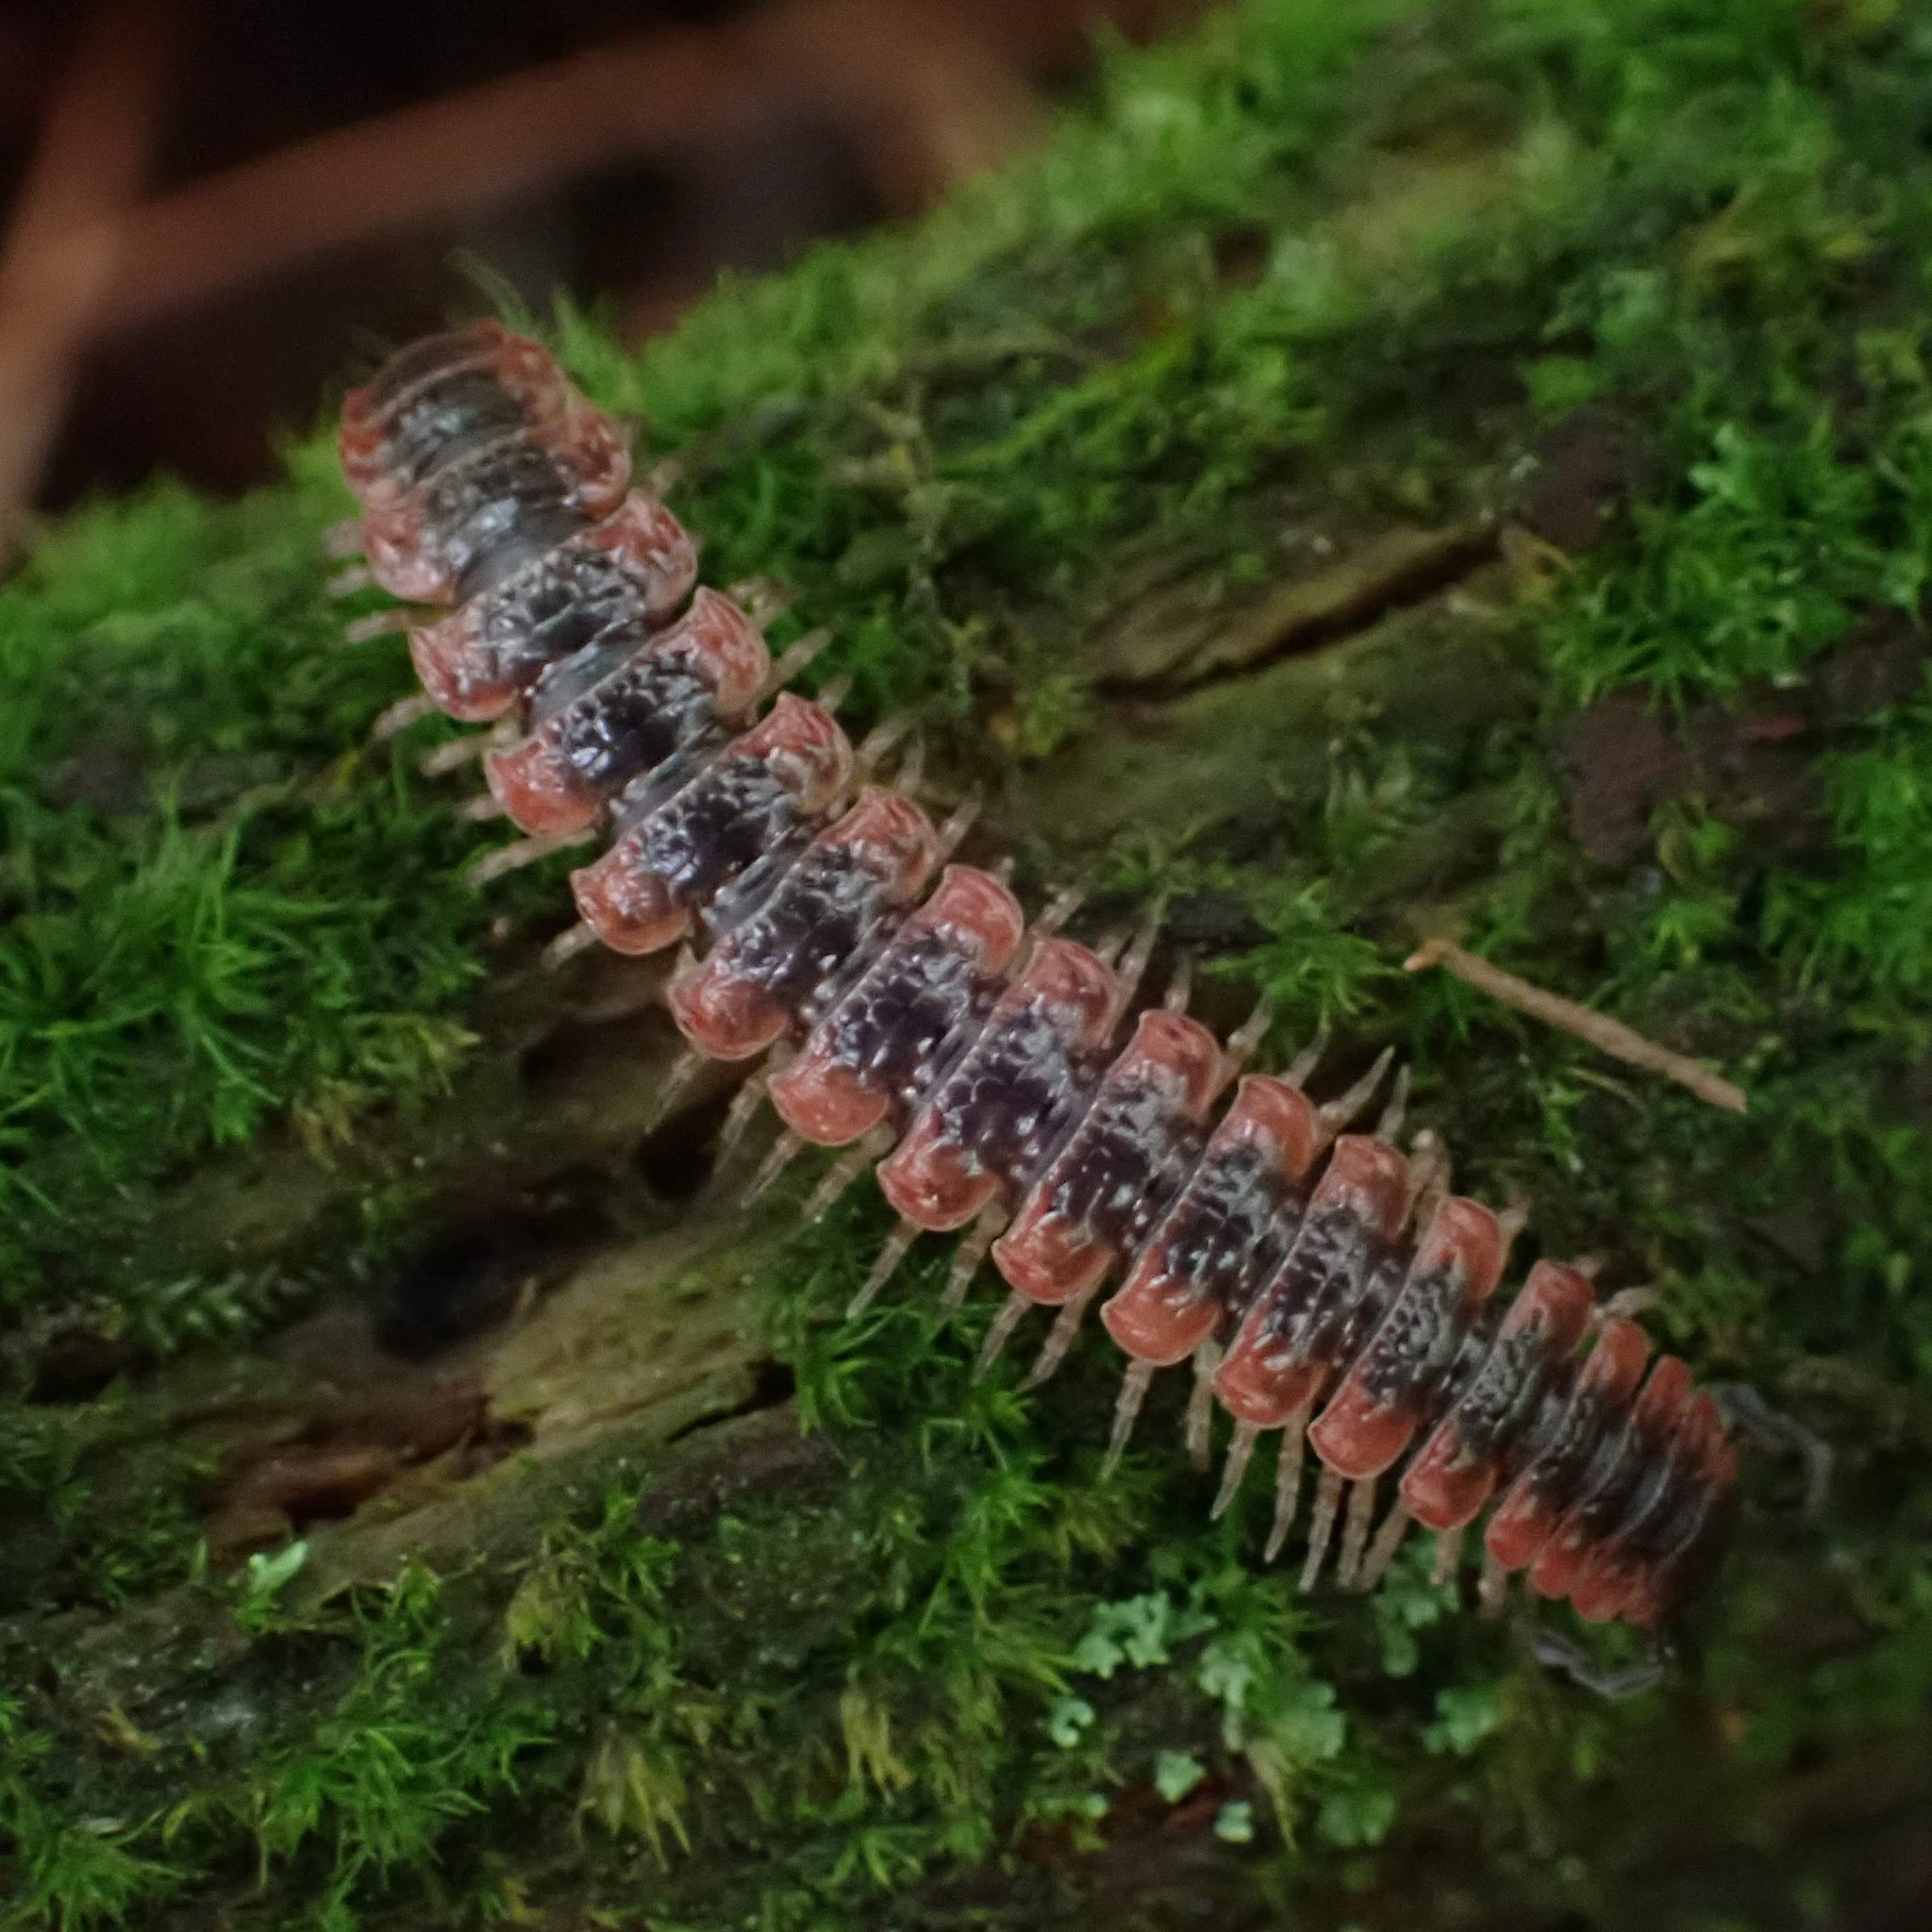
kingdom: Animalia
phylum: Arthropoda
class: Diplopoda
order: Polydesmida
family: Polydesmidae
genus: Pseudopolydesmus
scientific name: Pseudopolydesmus canadensis
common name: Canadian flat-back millipede
